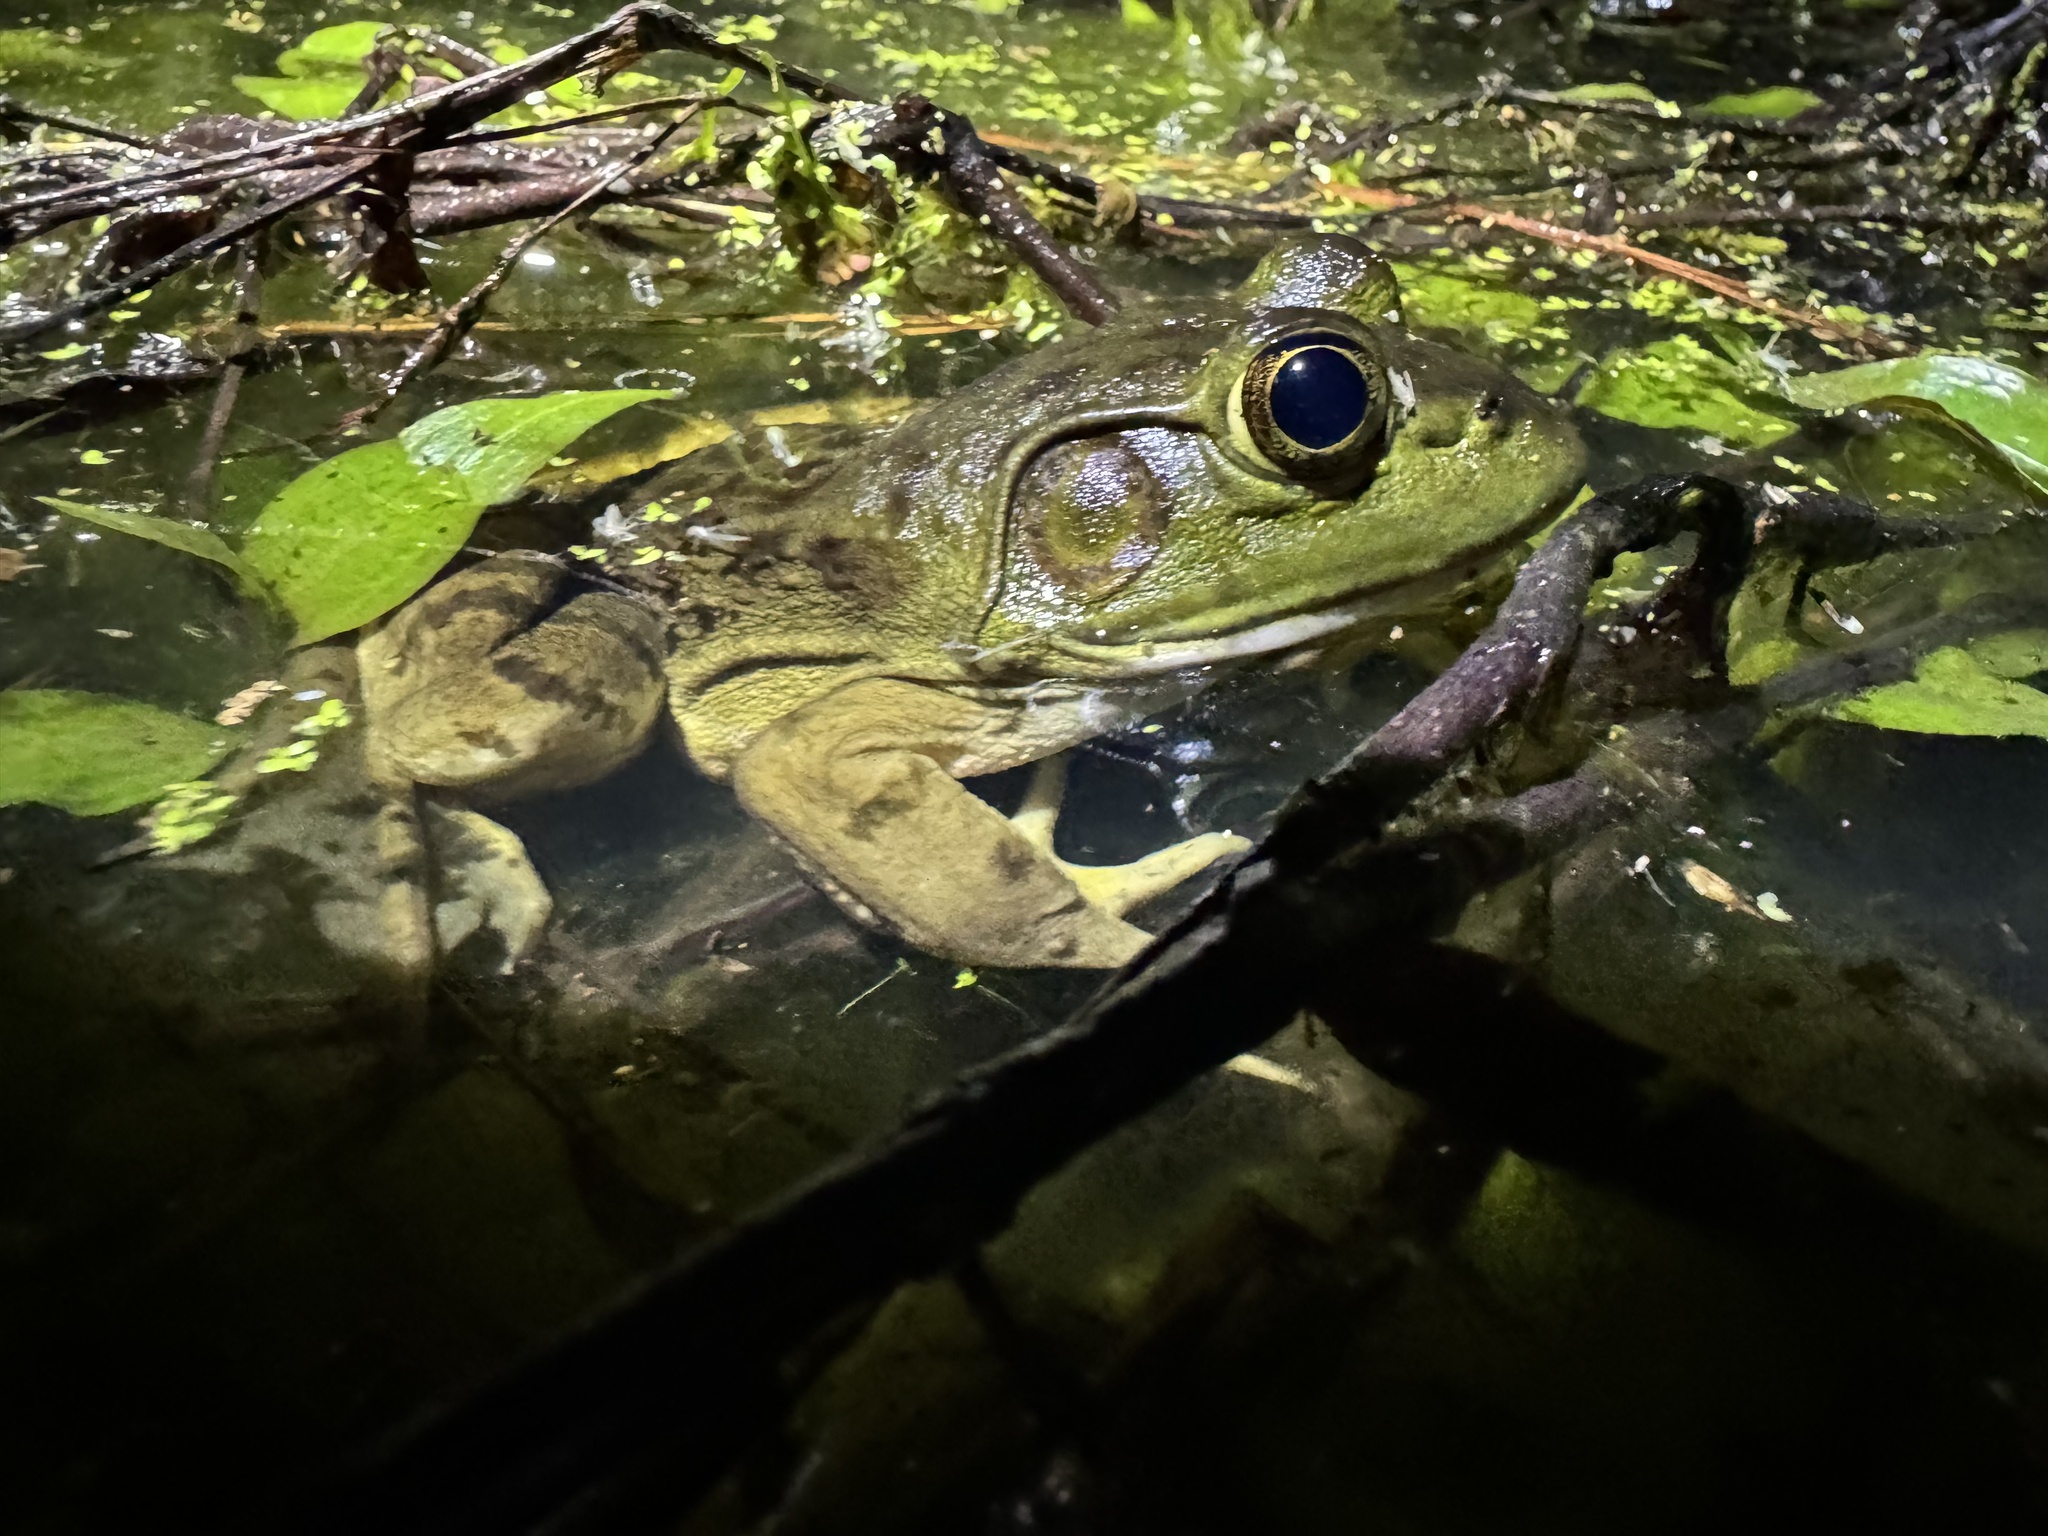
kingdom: Animalia
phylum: Chordata
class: Amphibia
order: Anura
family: Ranidae
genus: Lithobates
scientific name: Lithobates catesbeianus
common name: American bullfrog
